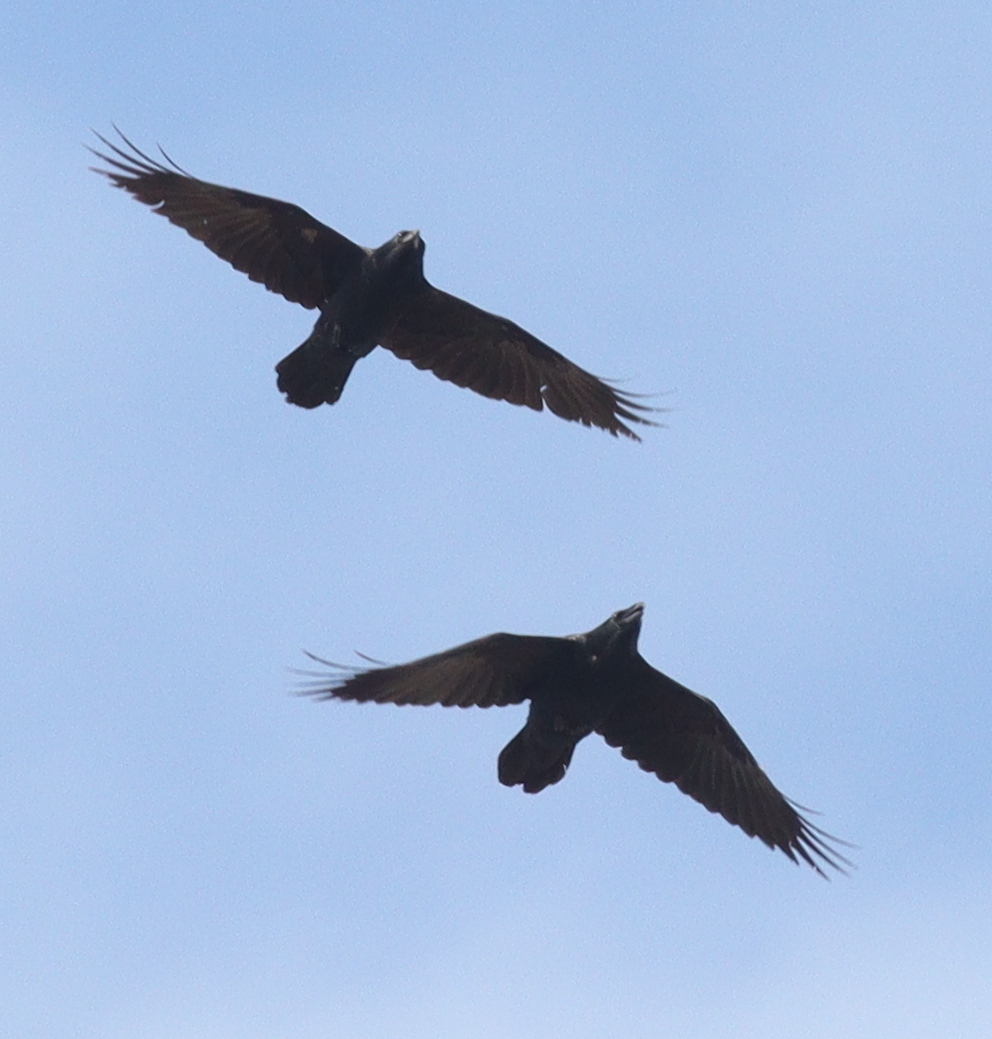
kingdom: Animalia
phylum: Chordata
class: Aves
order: Passeriformes
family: Corvidae
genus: Corvus
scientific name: Corvus corax
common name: Common raven
